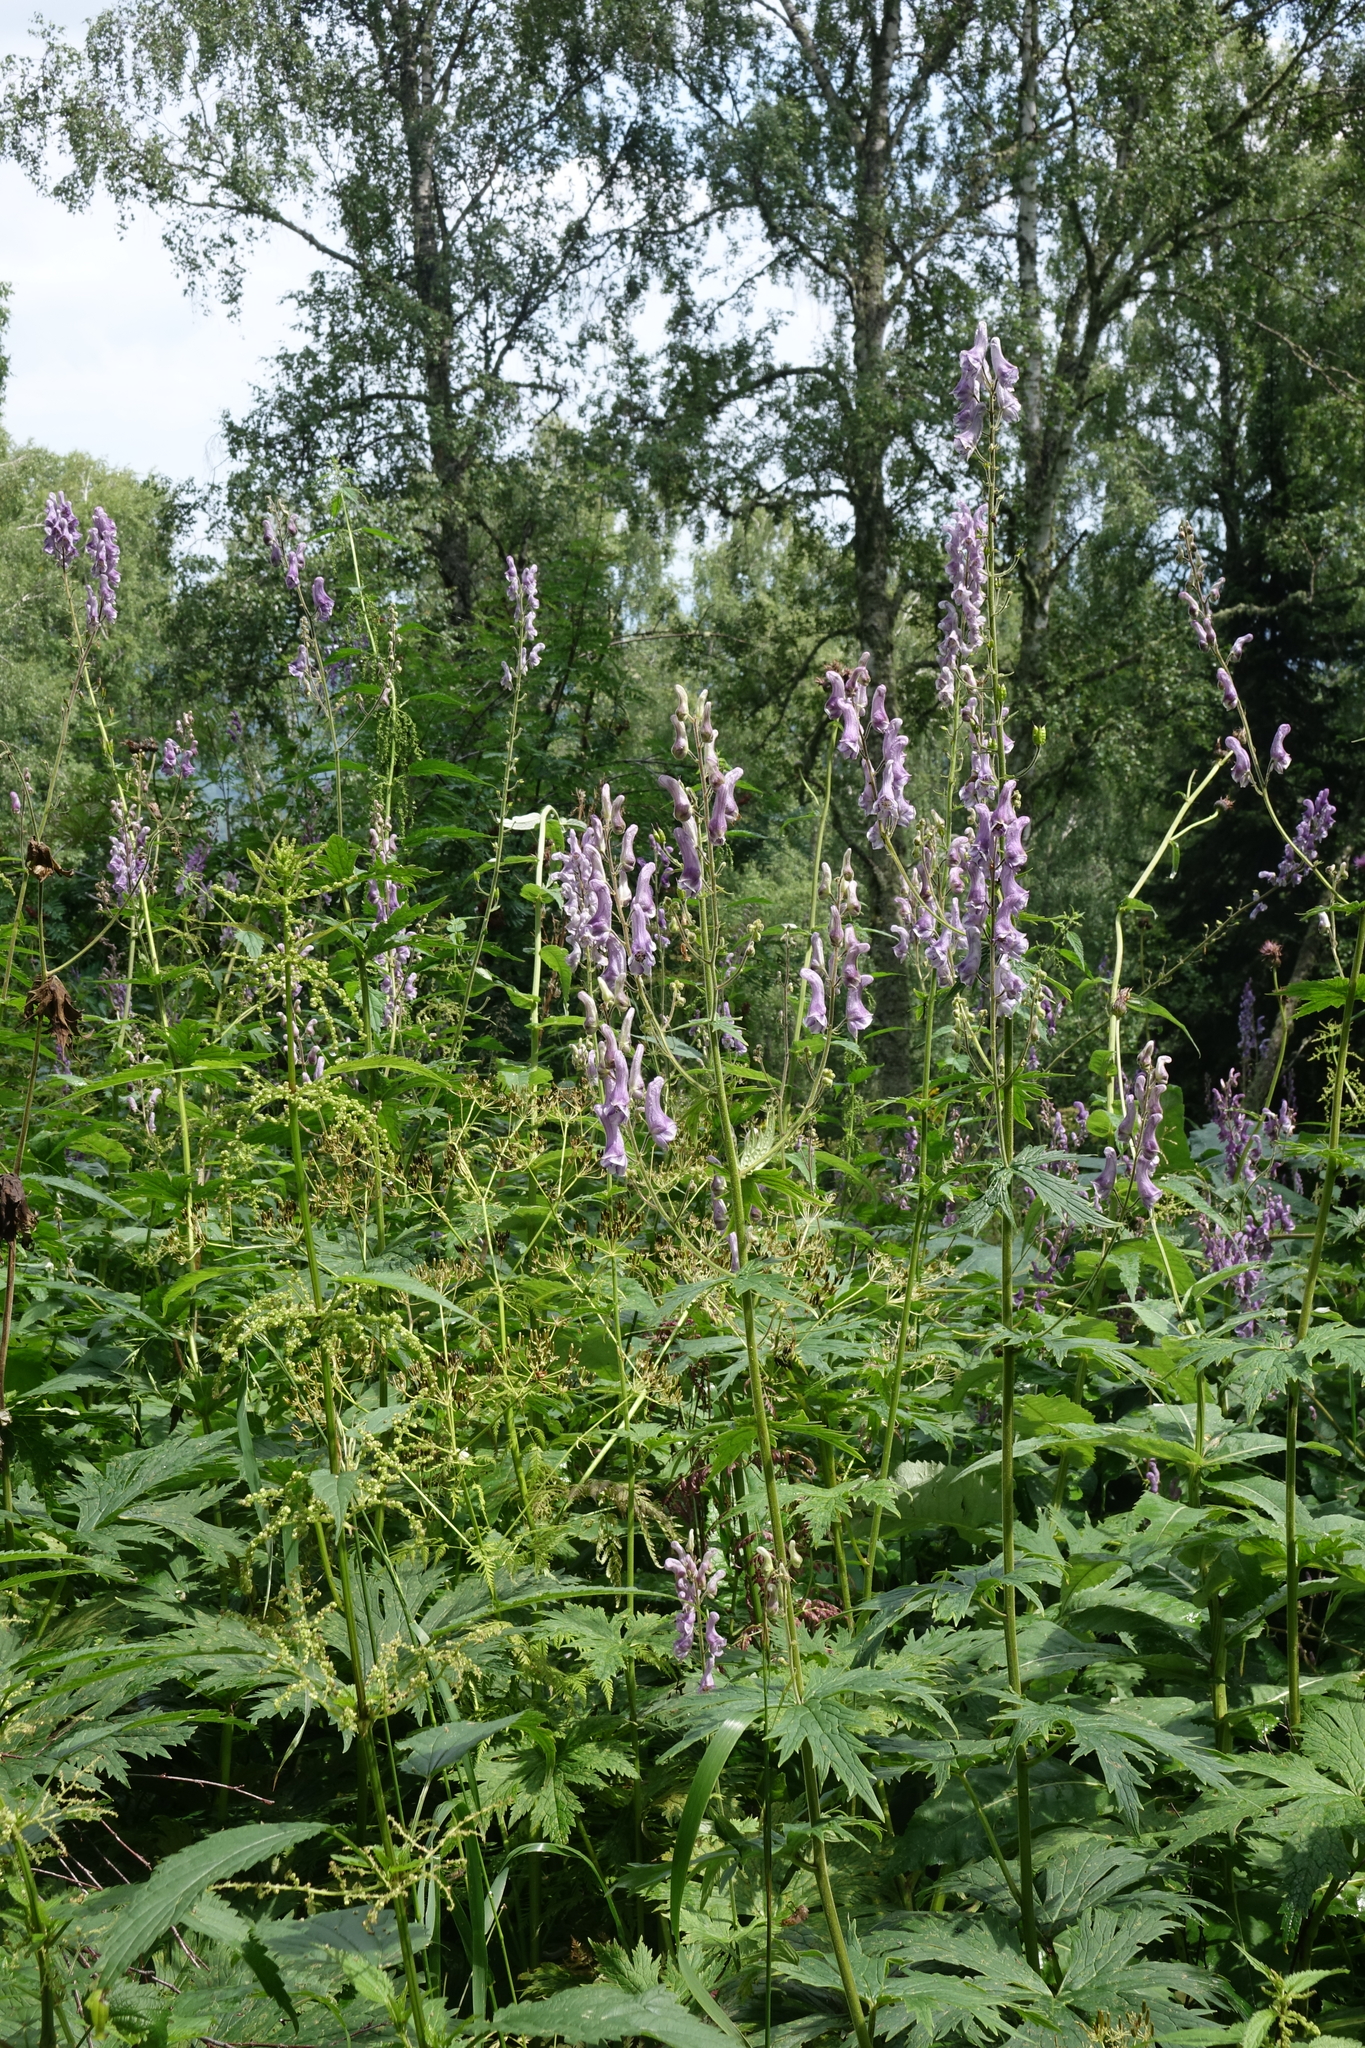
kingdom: Plantae
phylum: Tracheophyta
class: Magnoliopsida
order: Ranunculales
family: Ranunculaceae
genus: Aconitum
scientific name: Aconitum septentrionale
